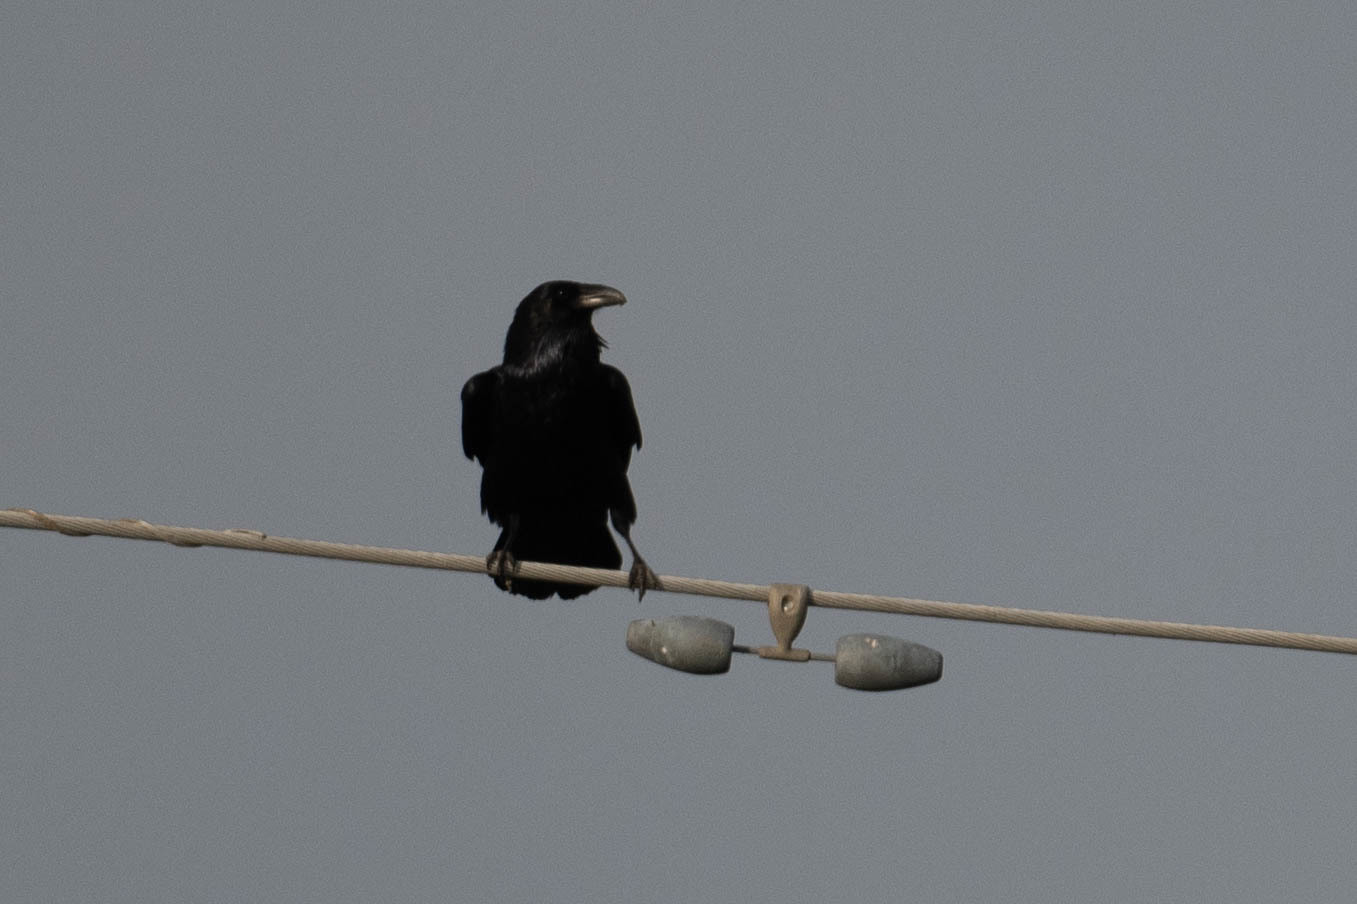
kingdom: Animalia
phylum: Chordata
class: Aves
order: Passeriformes
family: Corvidae
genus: Corvus
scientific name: Corvus corax
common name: Common raven
